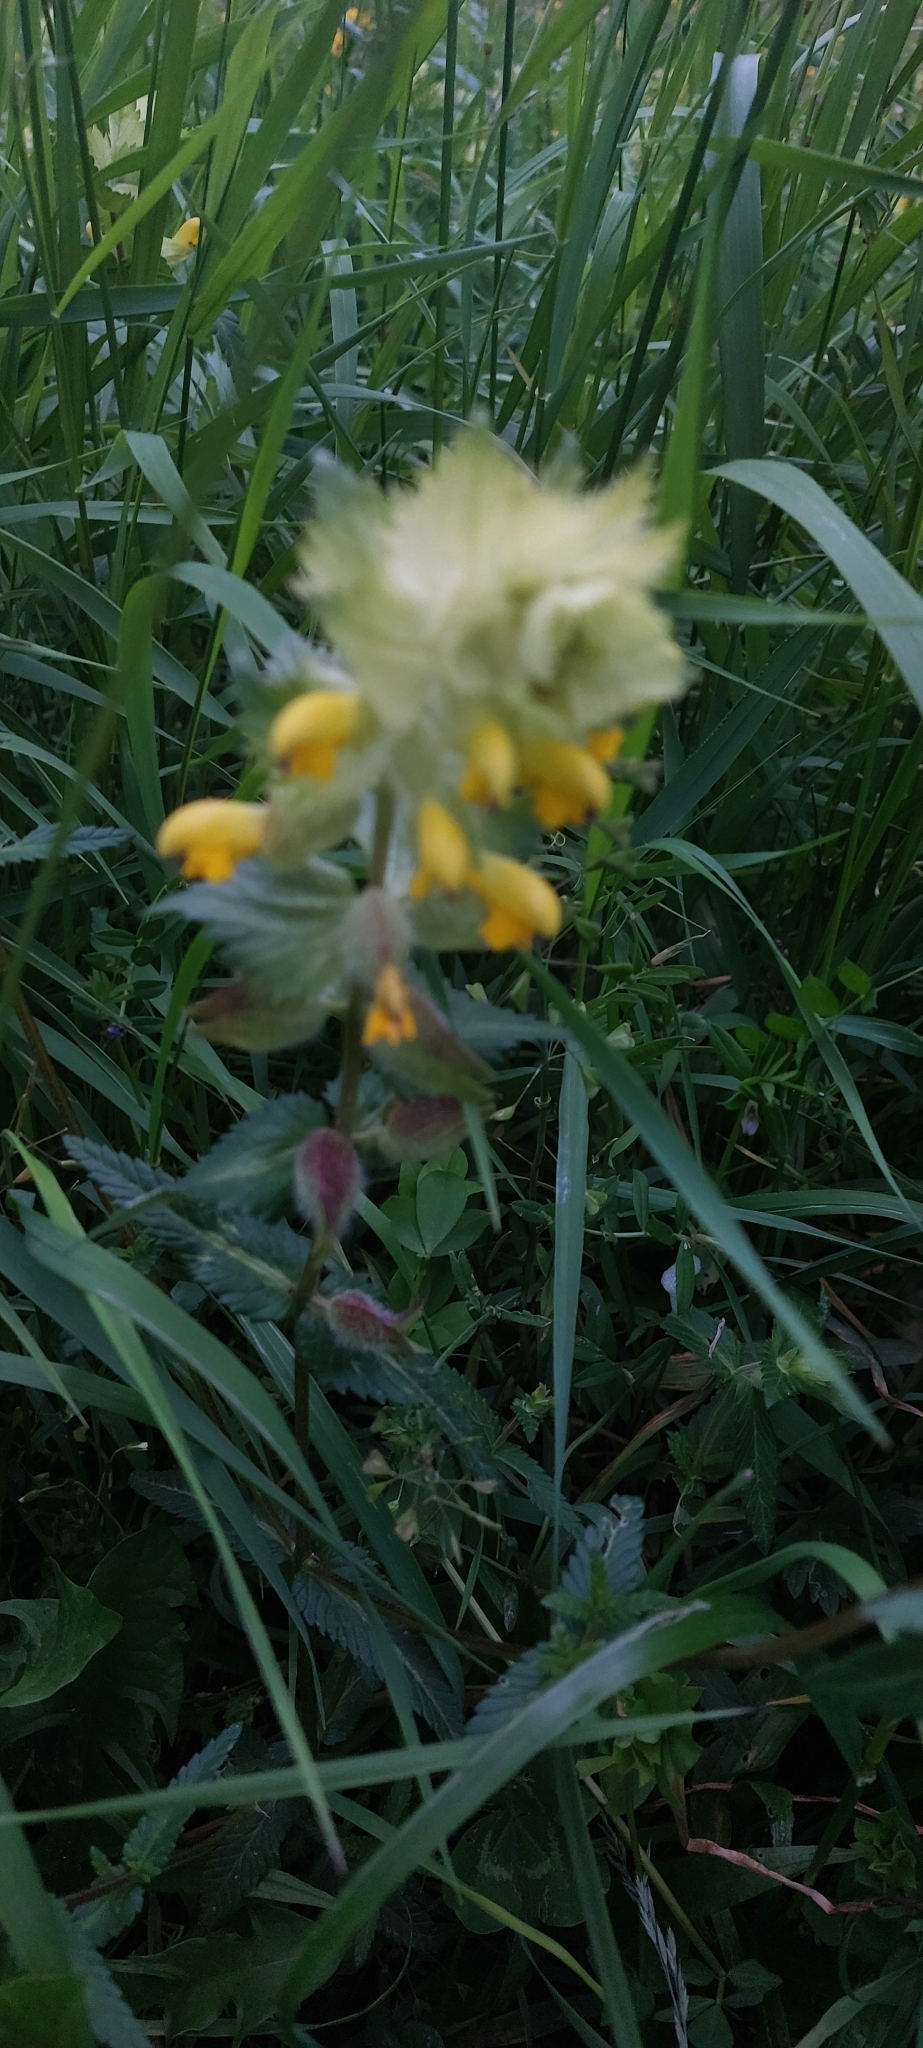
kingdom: Plantae
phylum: Tracheophyta
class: Magnoliopsida
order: Lamiales
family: Orobanchaceae
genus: Rhinanthus
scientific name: Rhinanthus alectorolophus
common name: Greater yellow-rattle
